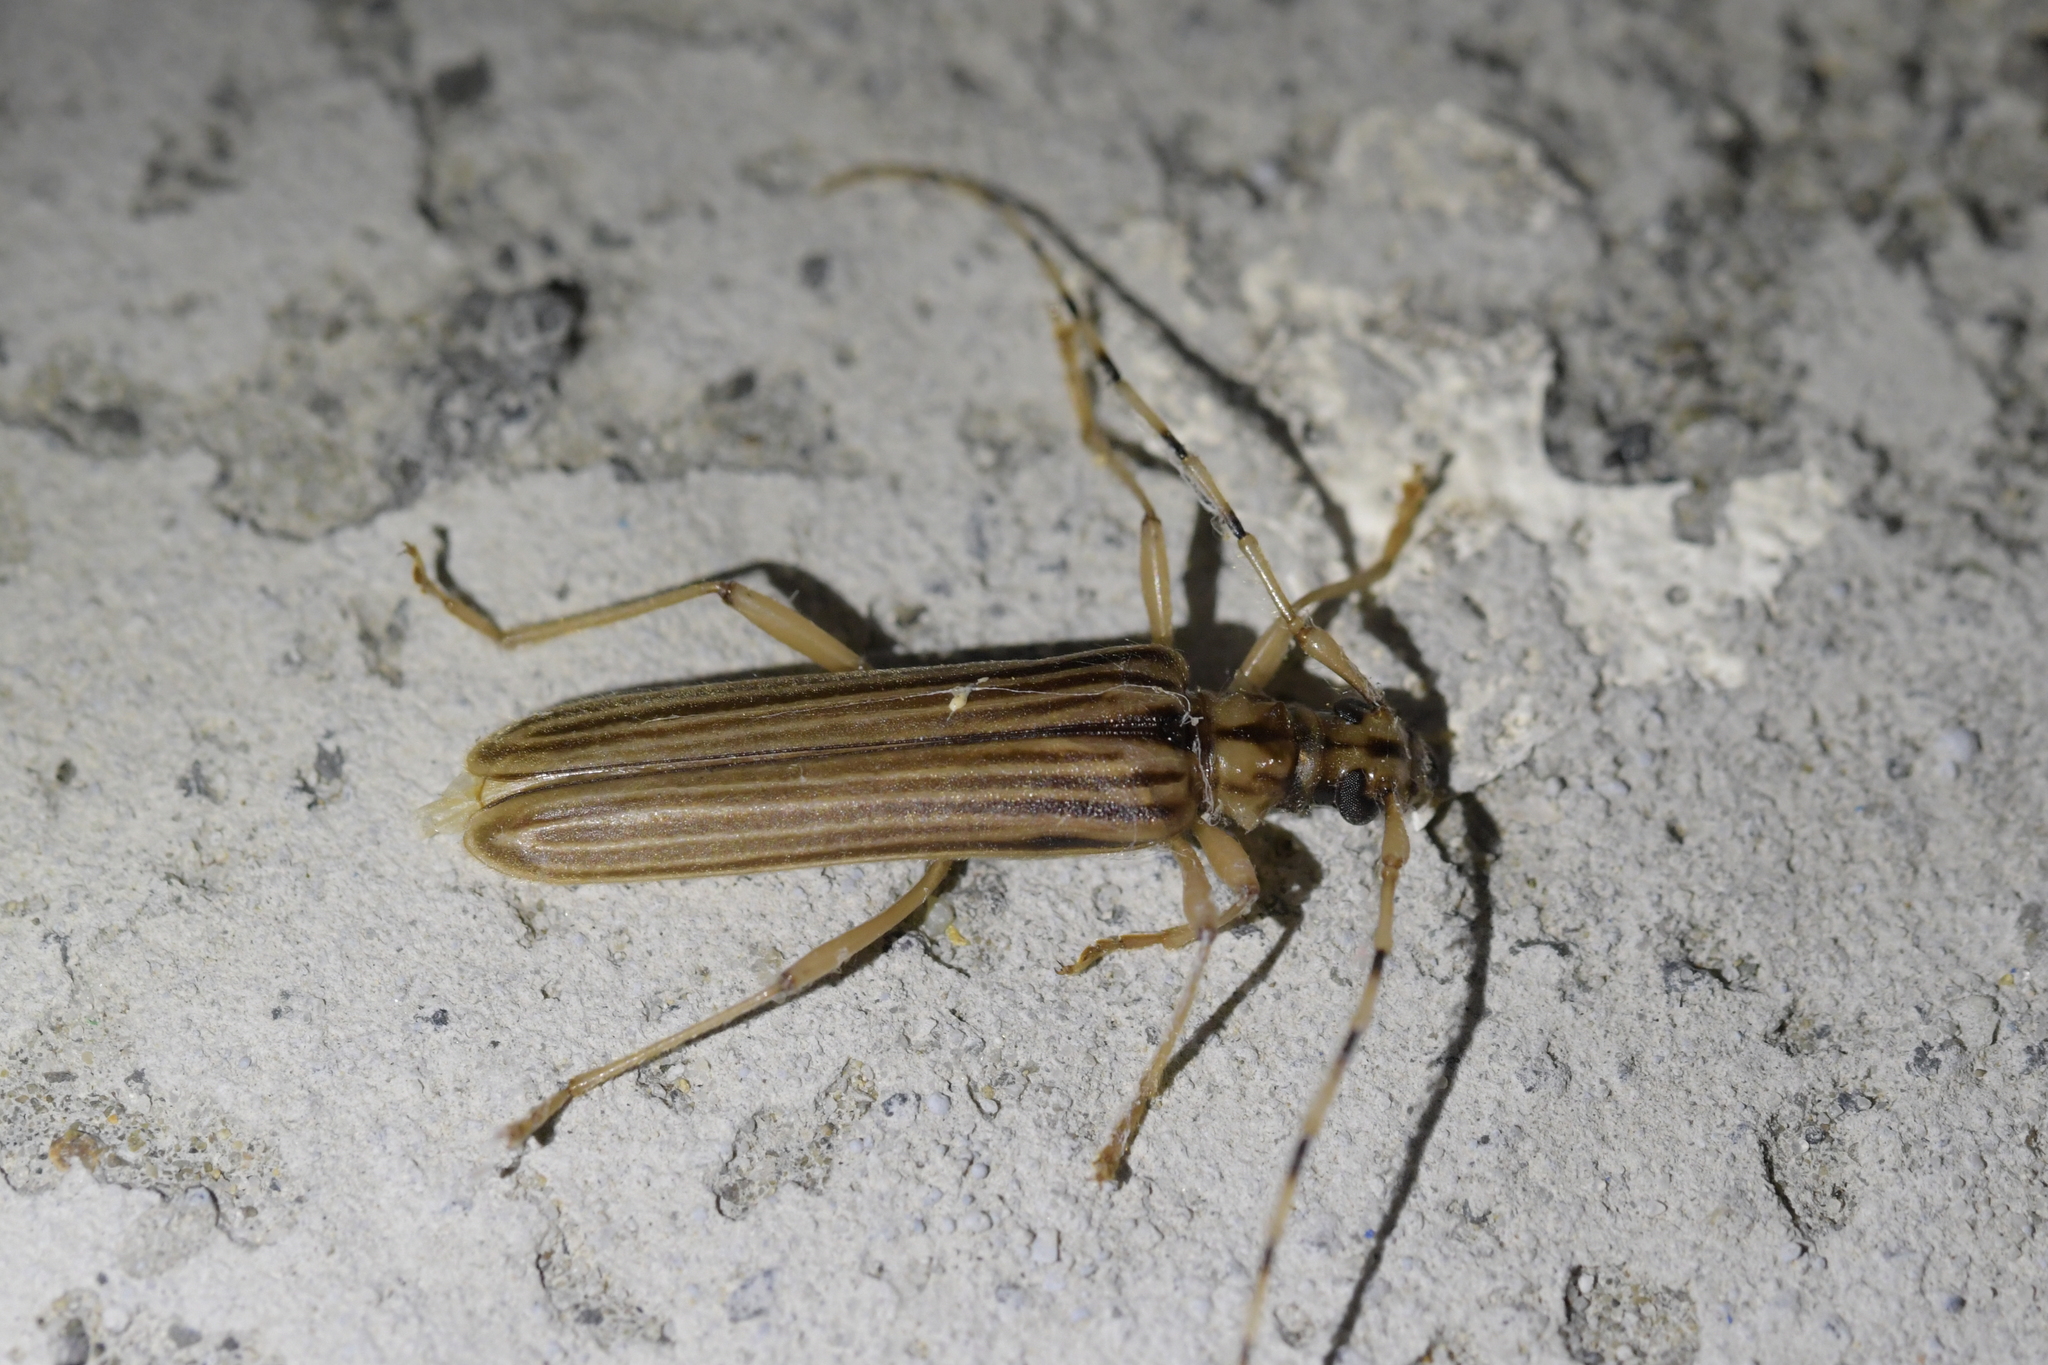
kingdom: Animalia
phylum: Arthropoda
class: Insecta
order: Coleoptera
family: Cerambycidae
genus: Leptachrous
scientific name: Leptachrous strigipennis
